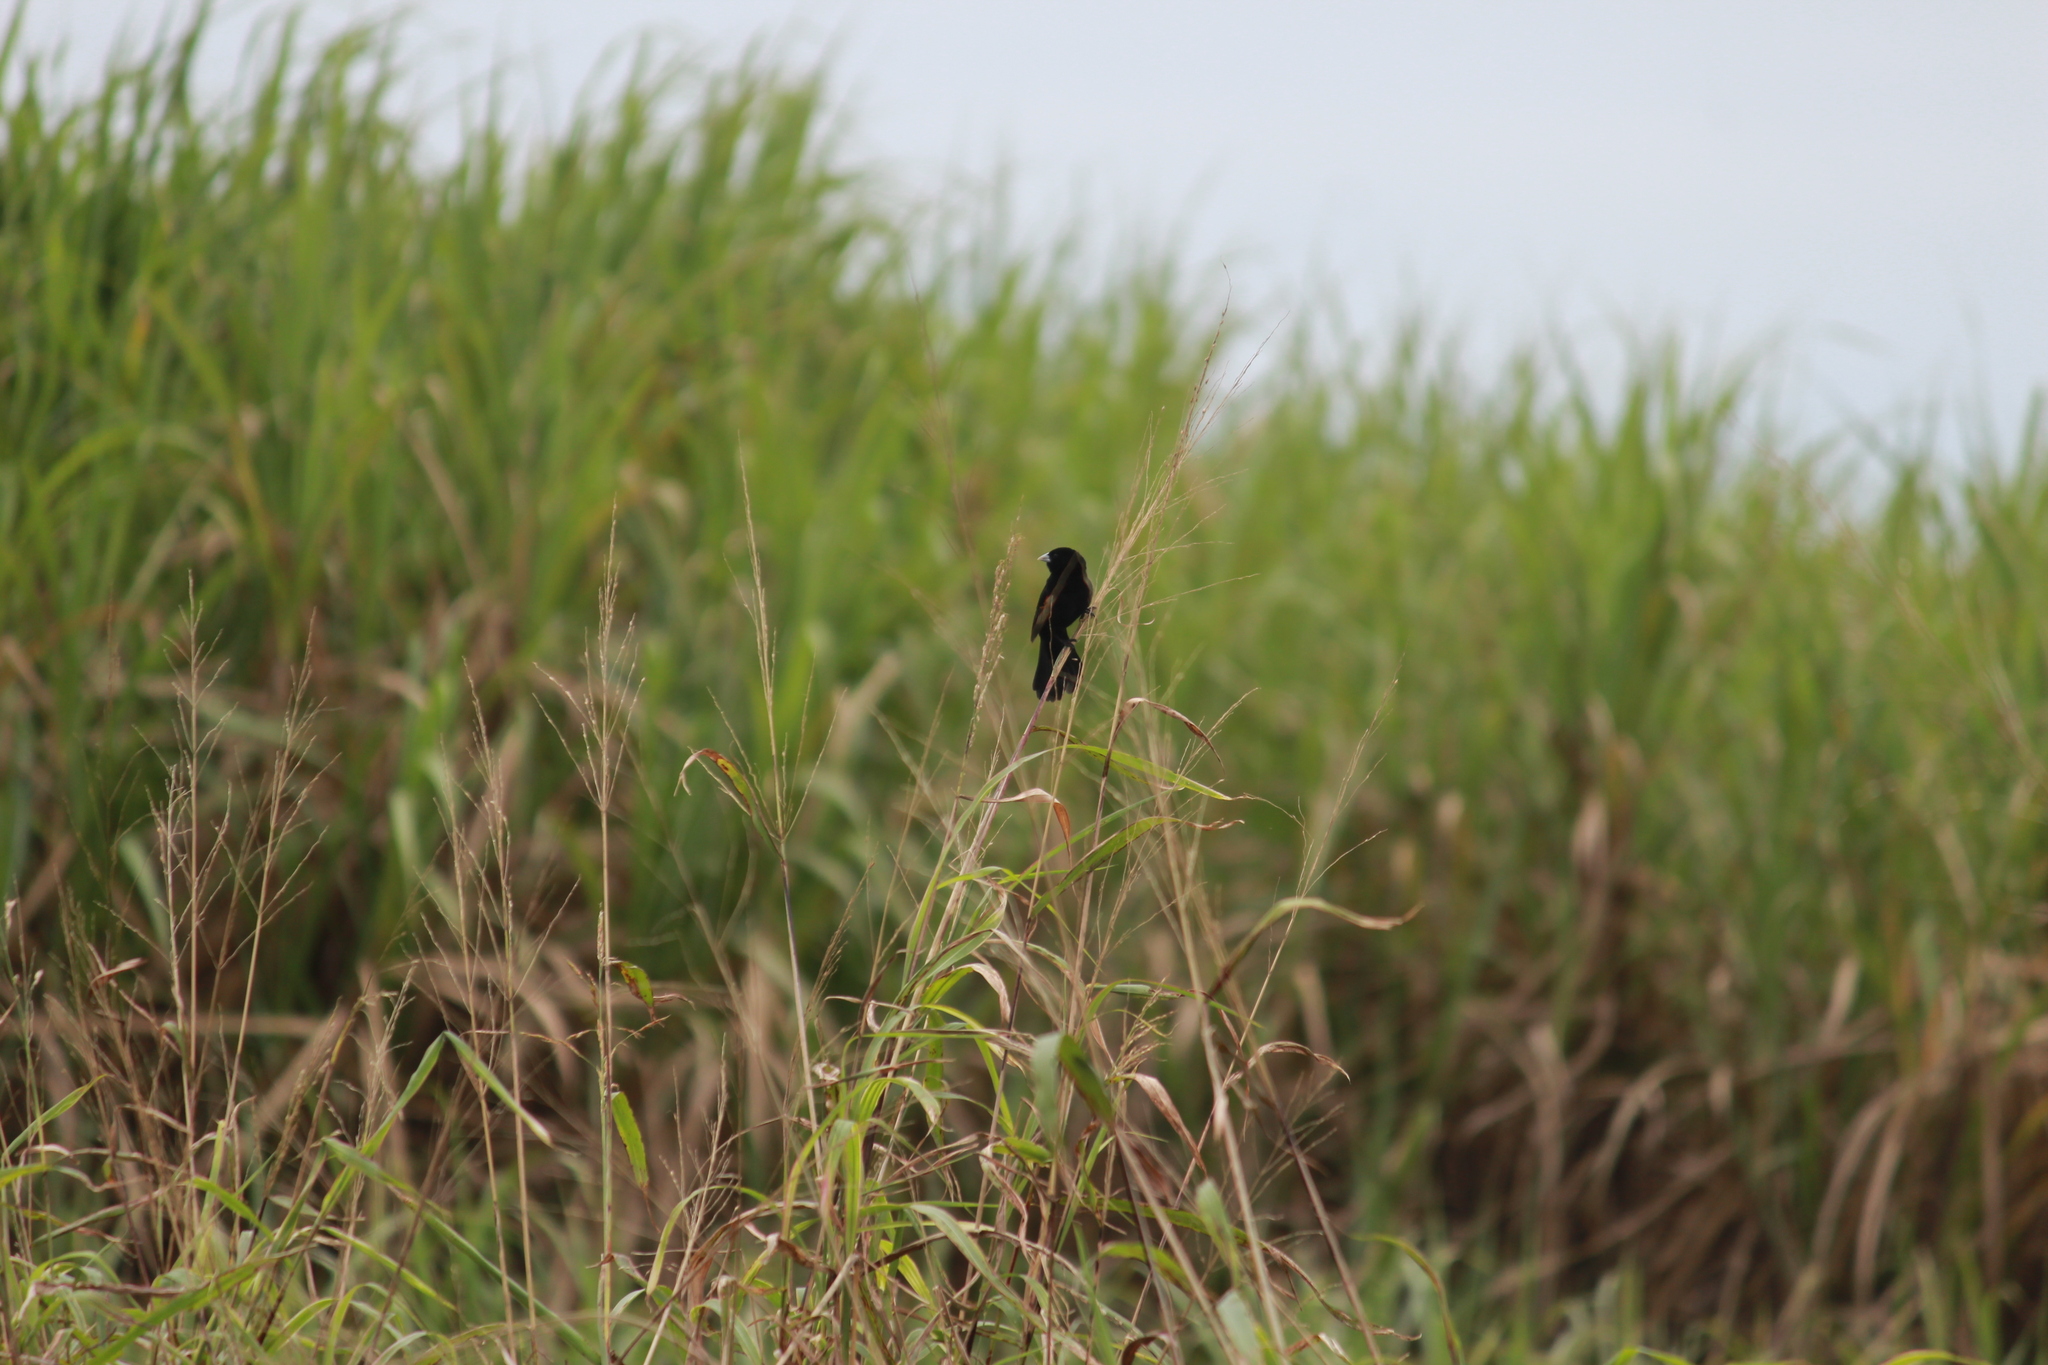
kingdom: Animalia
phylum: Chordata
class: Aves
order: Passeriformes
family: Ploceidae
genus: Euplectes
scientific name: Euplectes axillaris
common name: Fan-tailed widowbird
